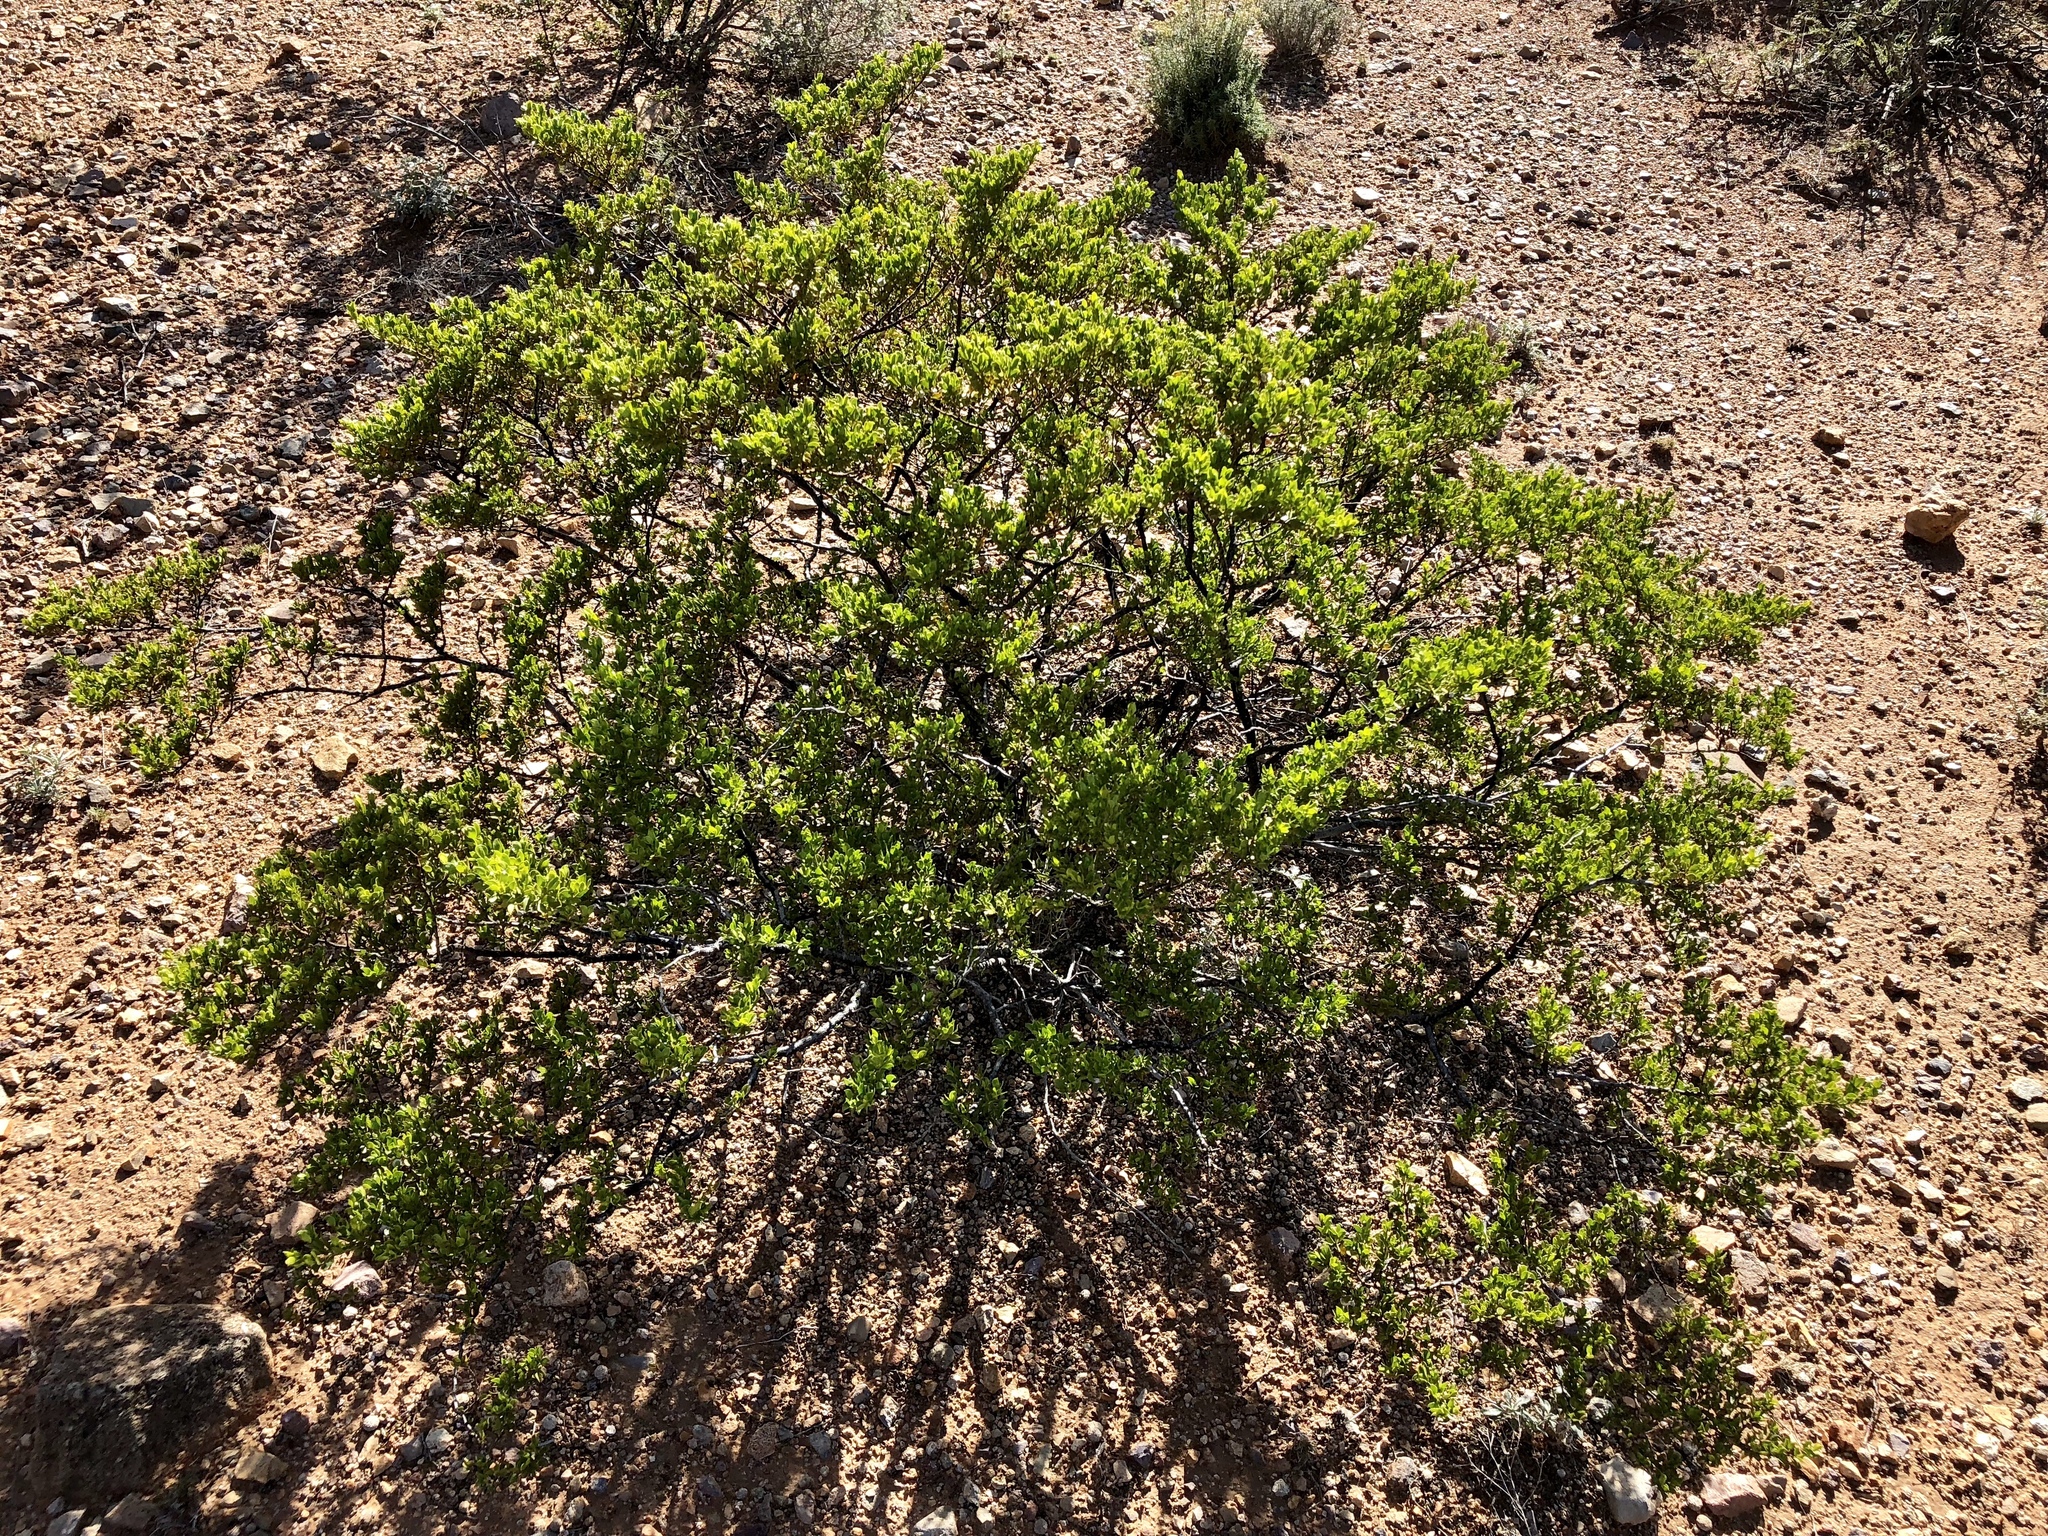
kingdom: Plantae
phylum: Tracheophyta
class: Magnoliopsida
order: Zygophyllales
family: Zygophyllaceae
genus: Larrea
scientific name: Larrea tridentata
